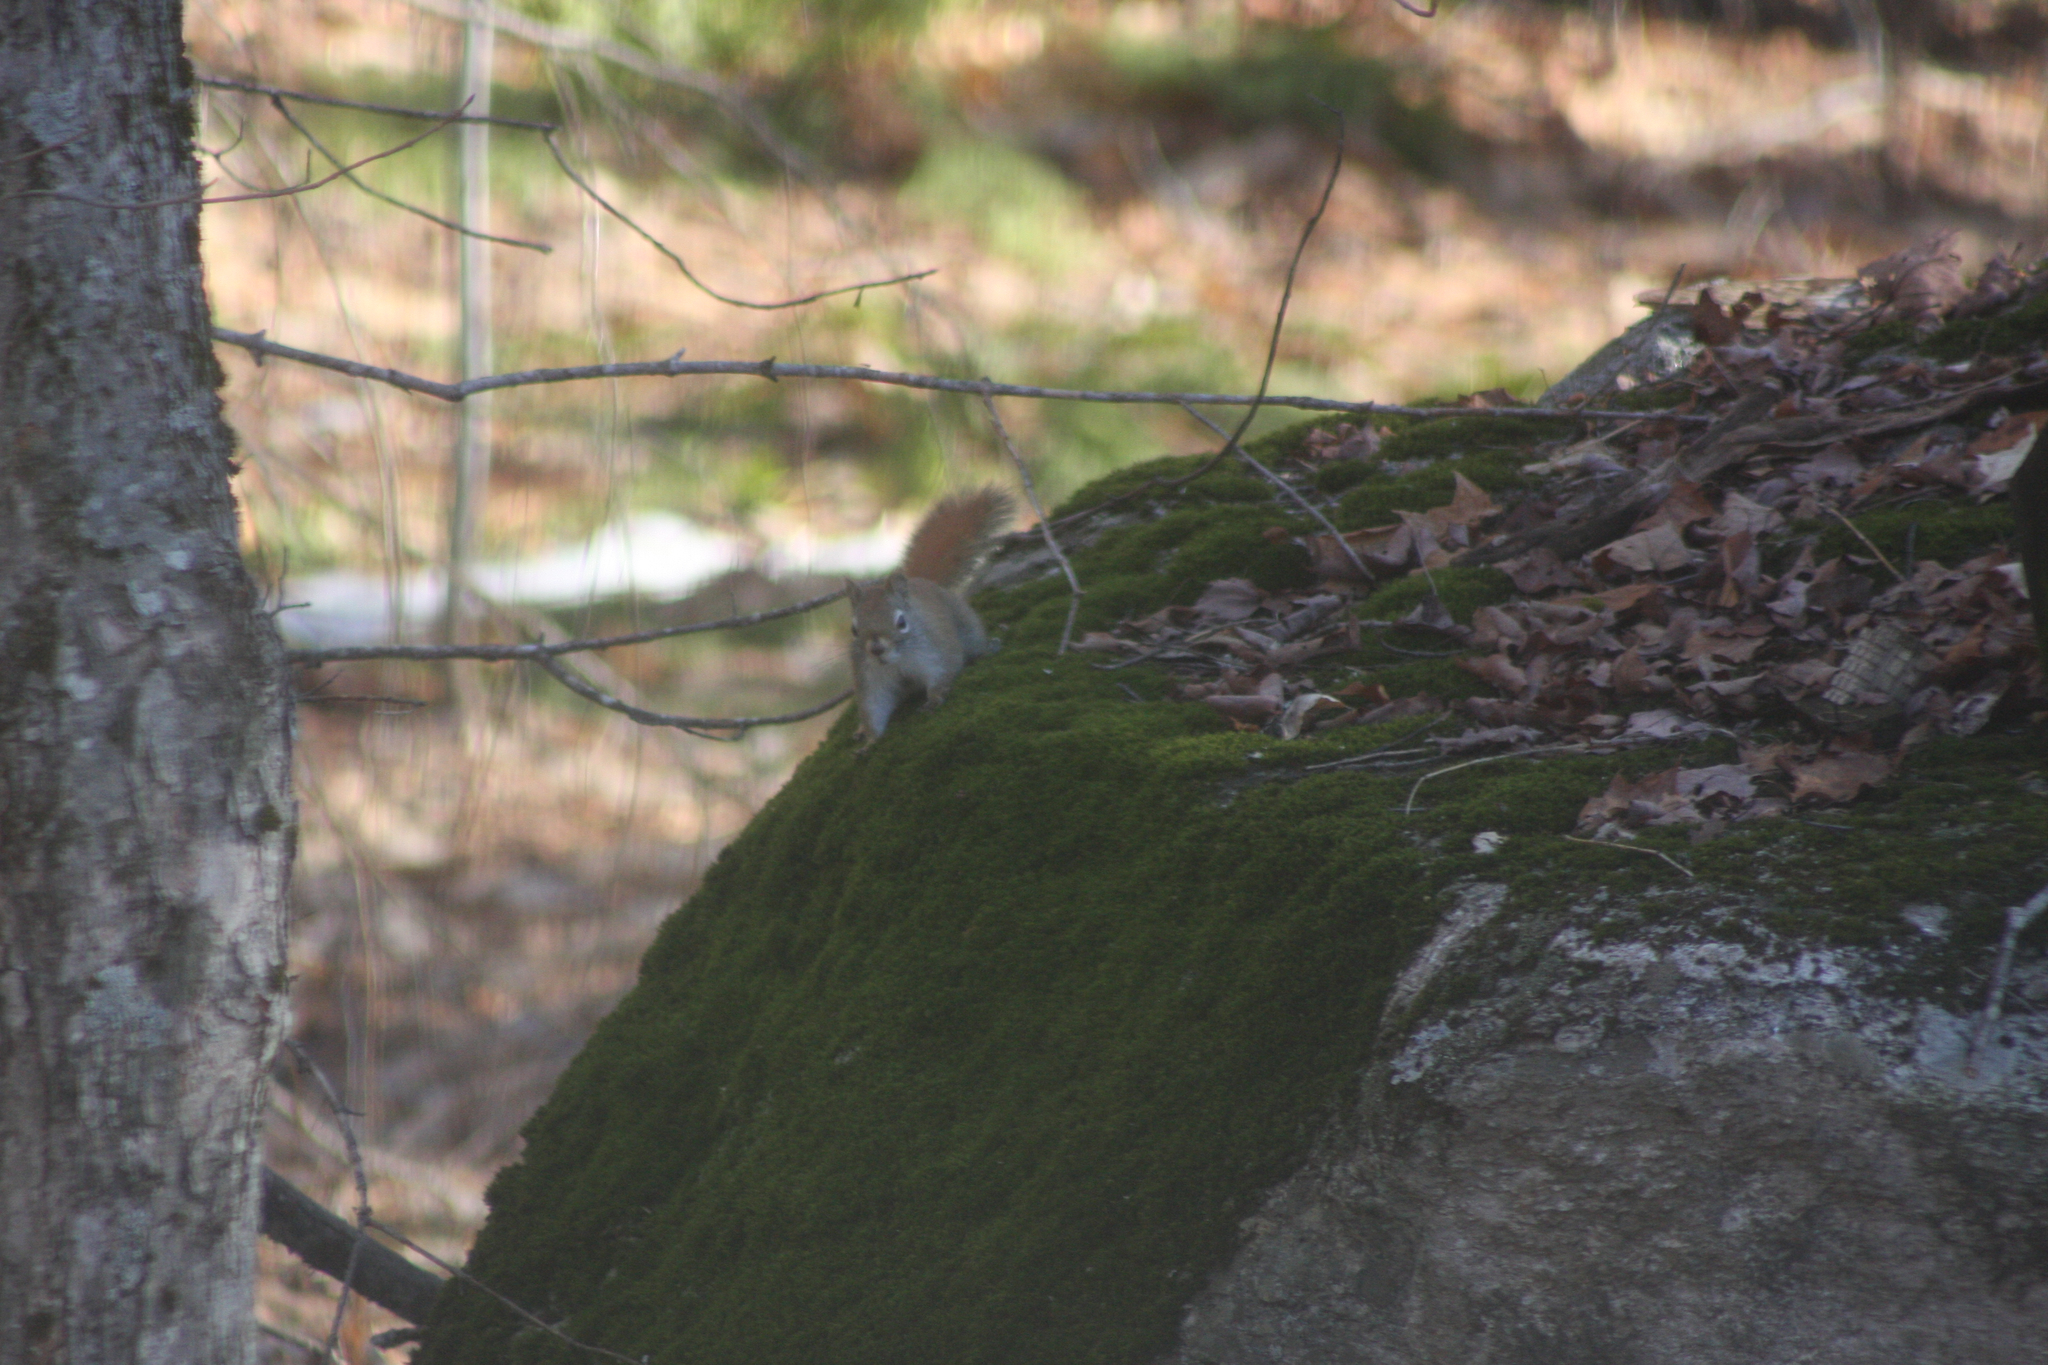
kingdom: Animalia
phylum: Chordata
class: Mammalia
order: Rodentia
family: Sciuridae
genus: Tamiasciurus
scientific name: Tamiasciurus hudsonicus
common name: Red squirrel
